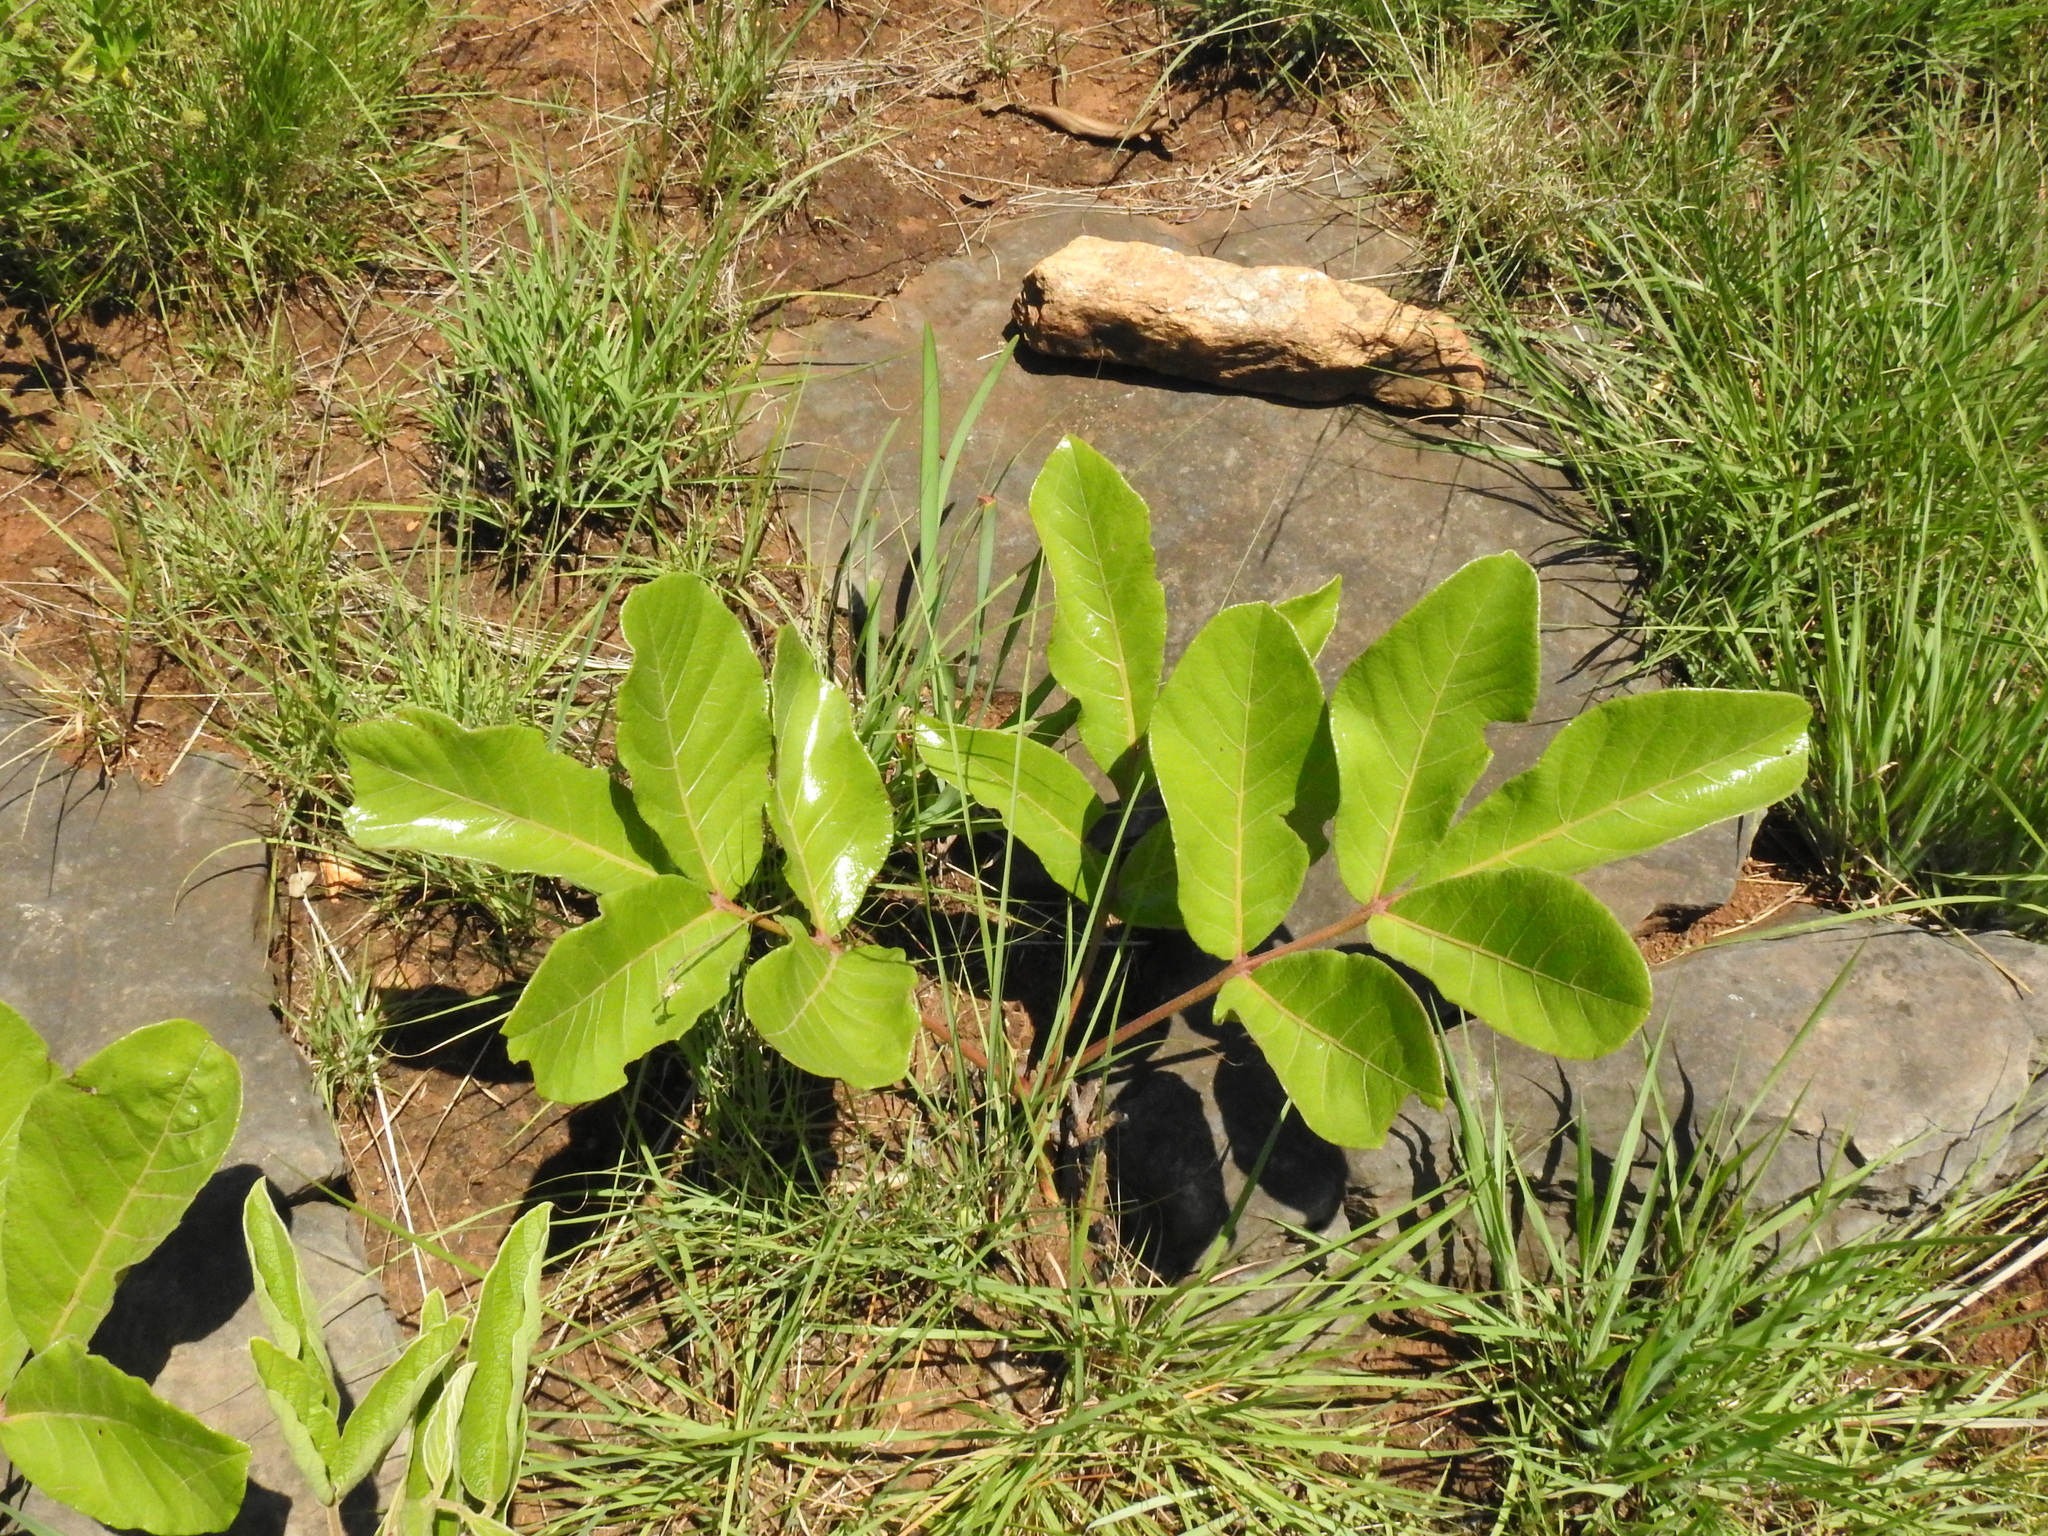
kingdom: Plantae
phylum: Tracheophyta
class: Magnoliopsida
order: Sapindales
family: Anacardiaceae
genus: Lannea
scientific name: Lannea edulis
